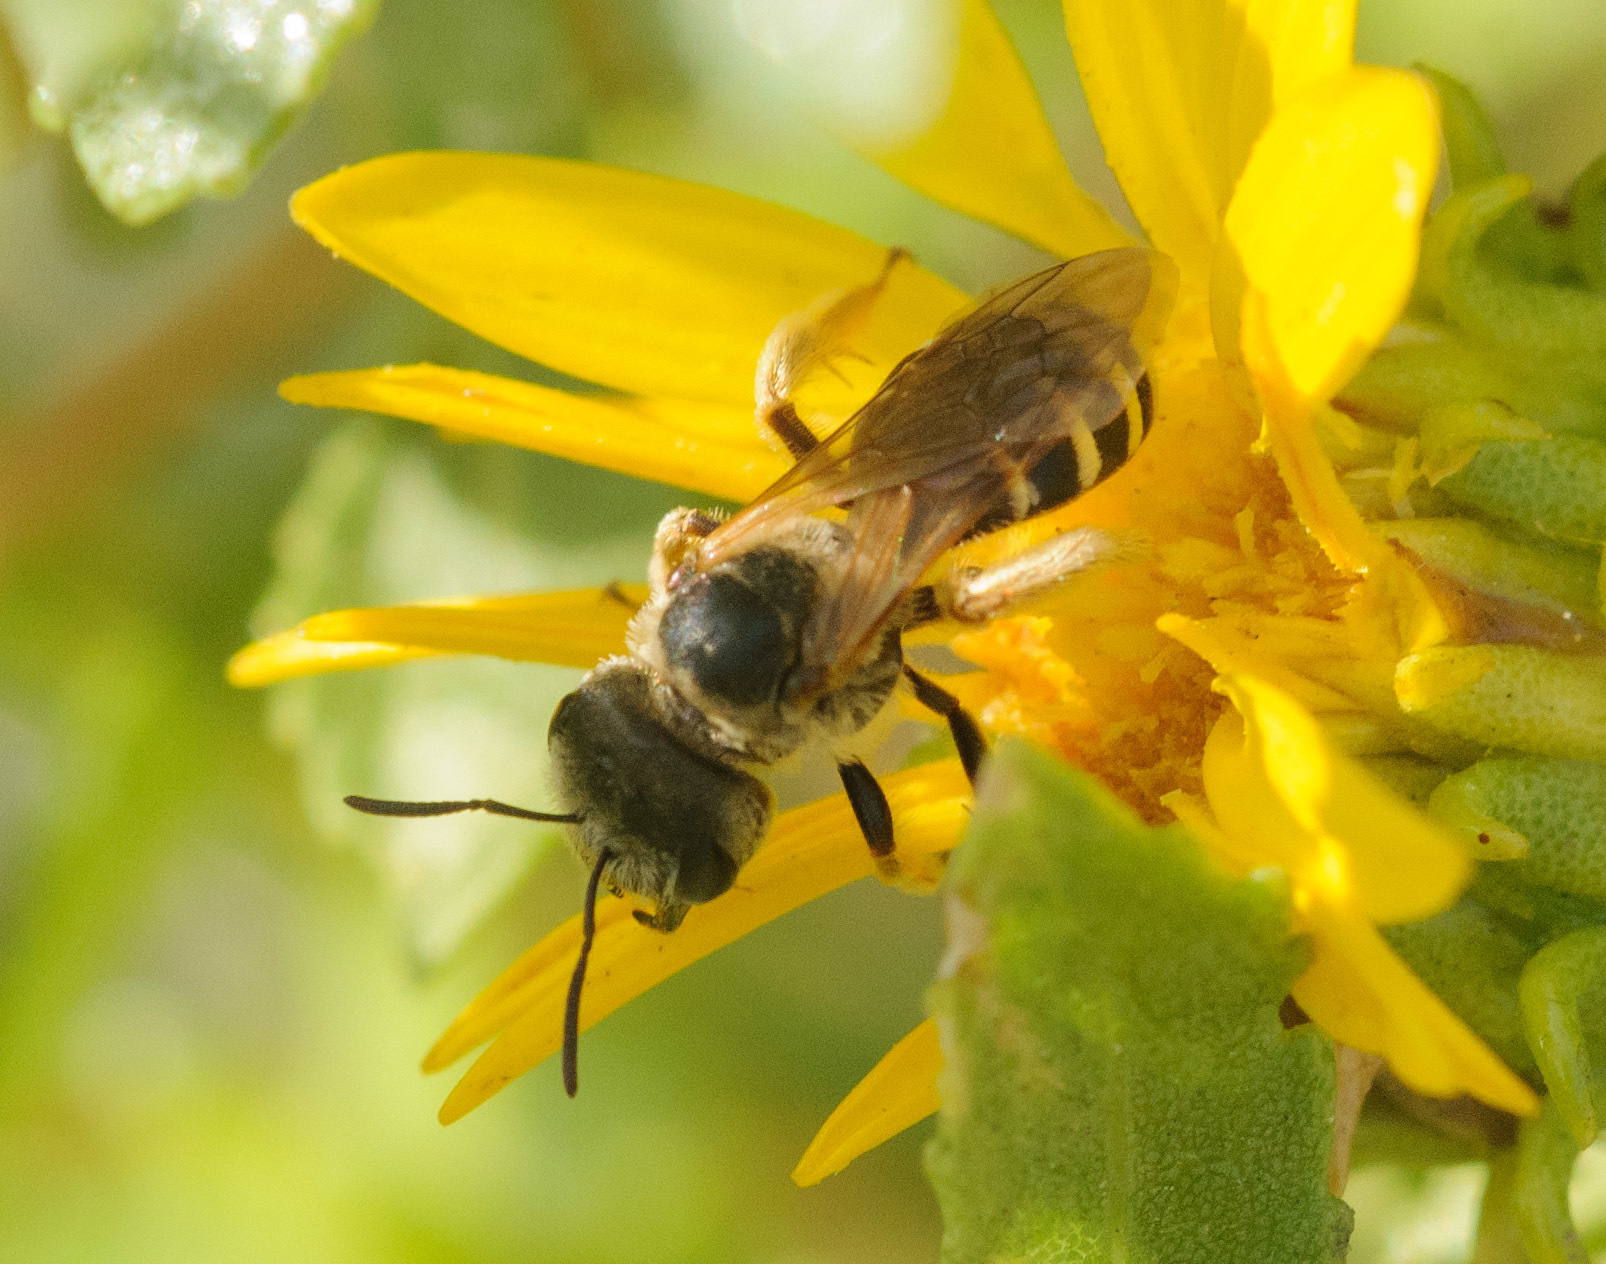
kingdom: Animalia
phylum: Arthropoda
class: Insecta
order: Hymenoptera
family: Halictidae
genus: Halictus
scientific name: Halictus ligatus
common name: Ligated furrow bee
